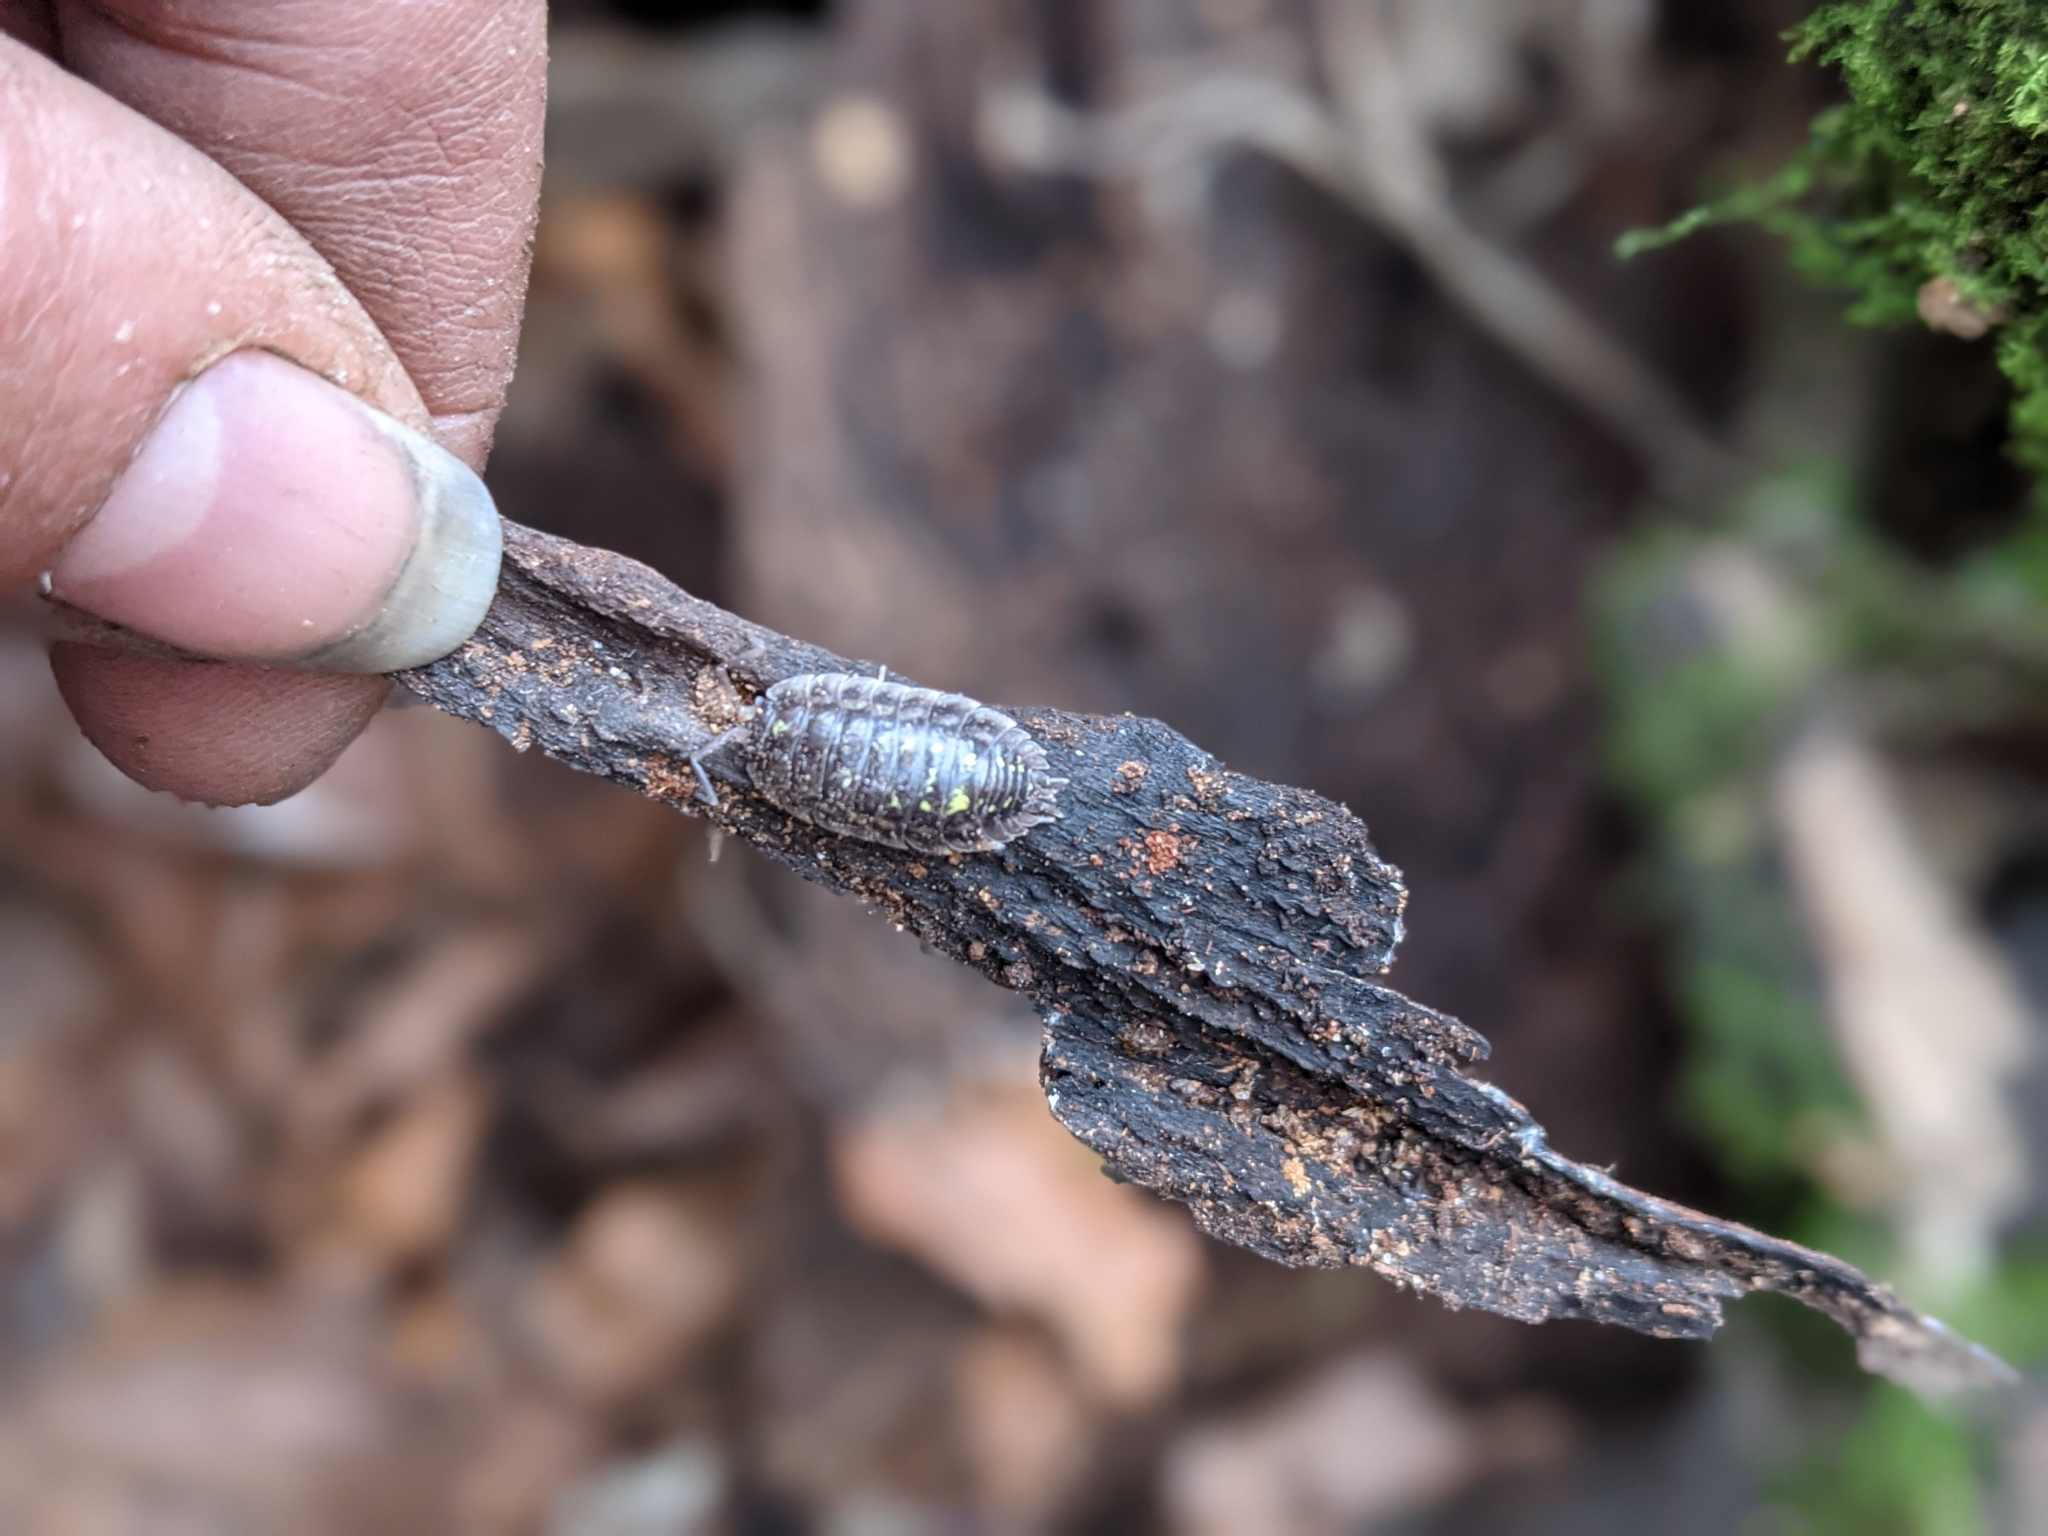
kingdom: Animalia
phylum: Arthropoda
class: Malacostraca
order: Isopoda
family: Oniscidae
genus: Oniscus
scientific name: Oniscus asellus
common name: Common shiny woodlouse
